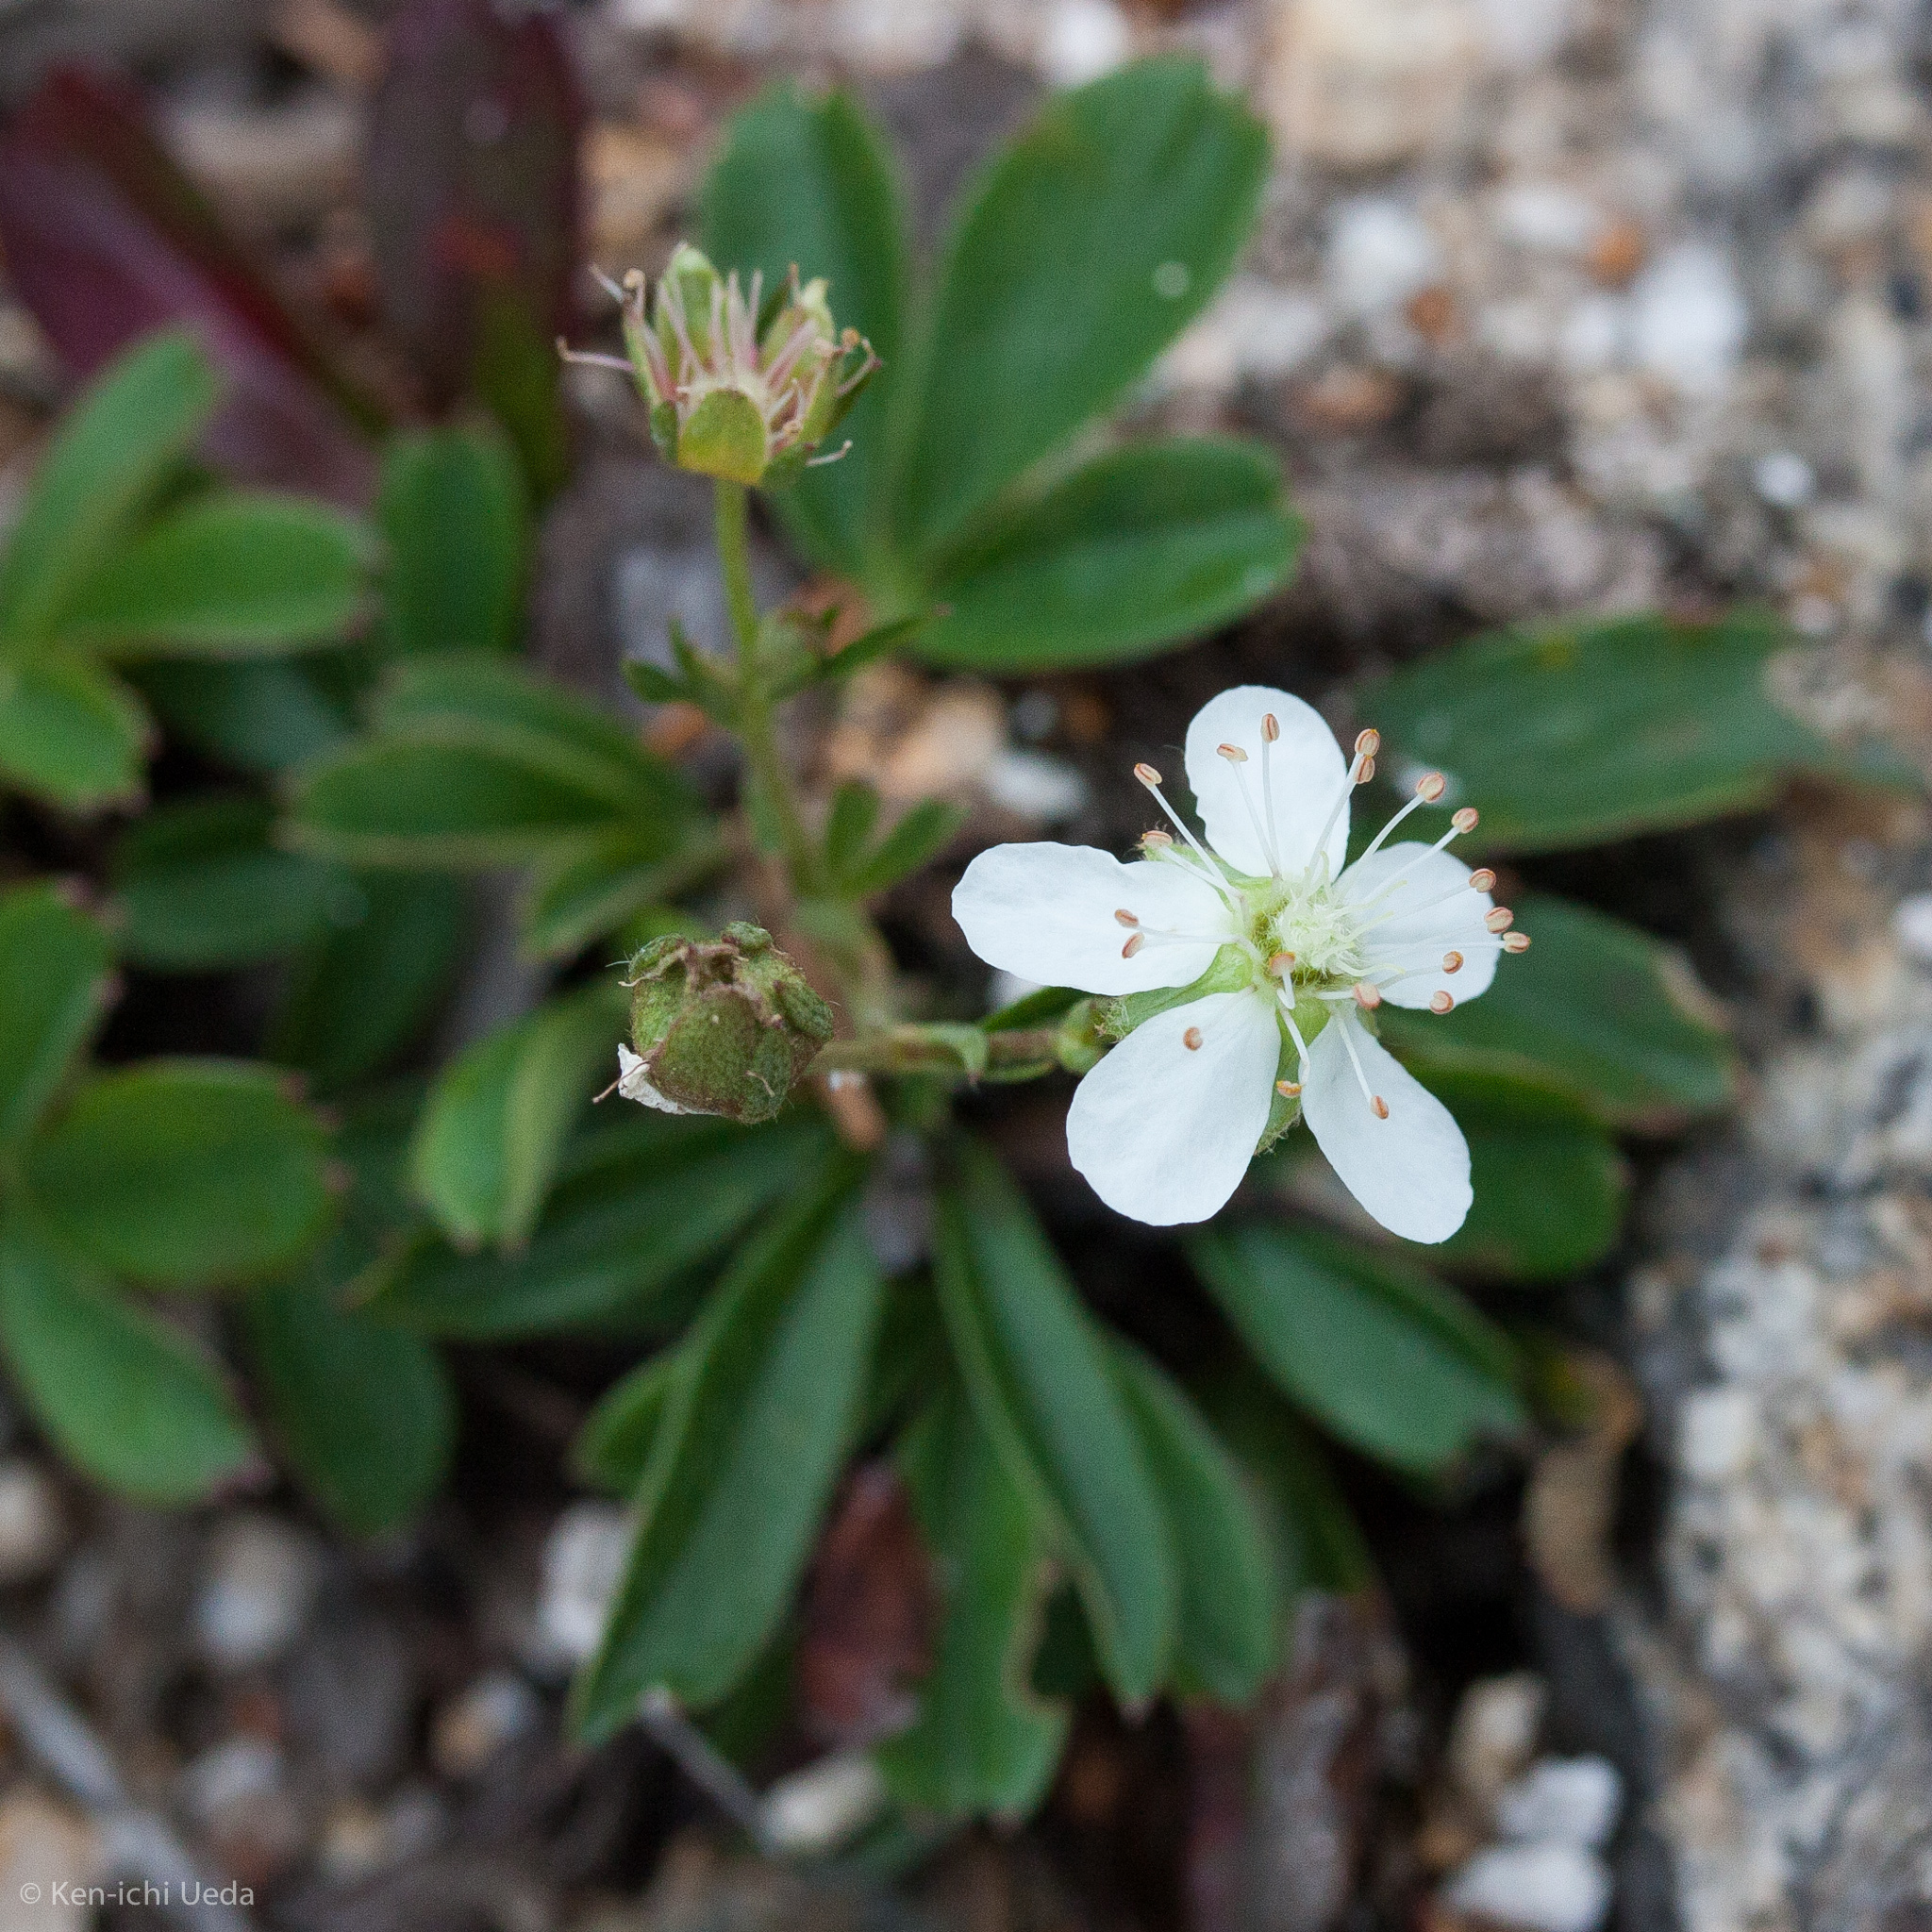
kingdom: Plantae
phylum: Tracheophyta
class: Magnoliopsida
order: Rosales
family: Rosaceae
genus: Sibbaldia
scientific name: Sibbaldia tridentata
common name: Three-toothed cinquefoil
